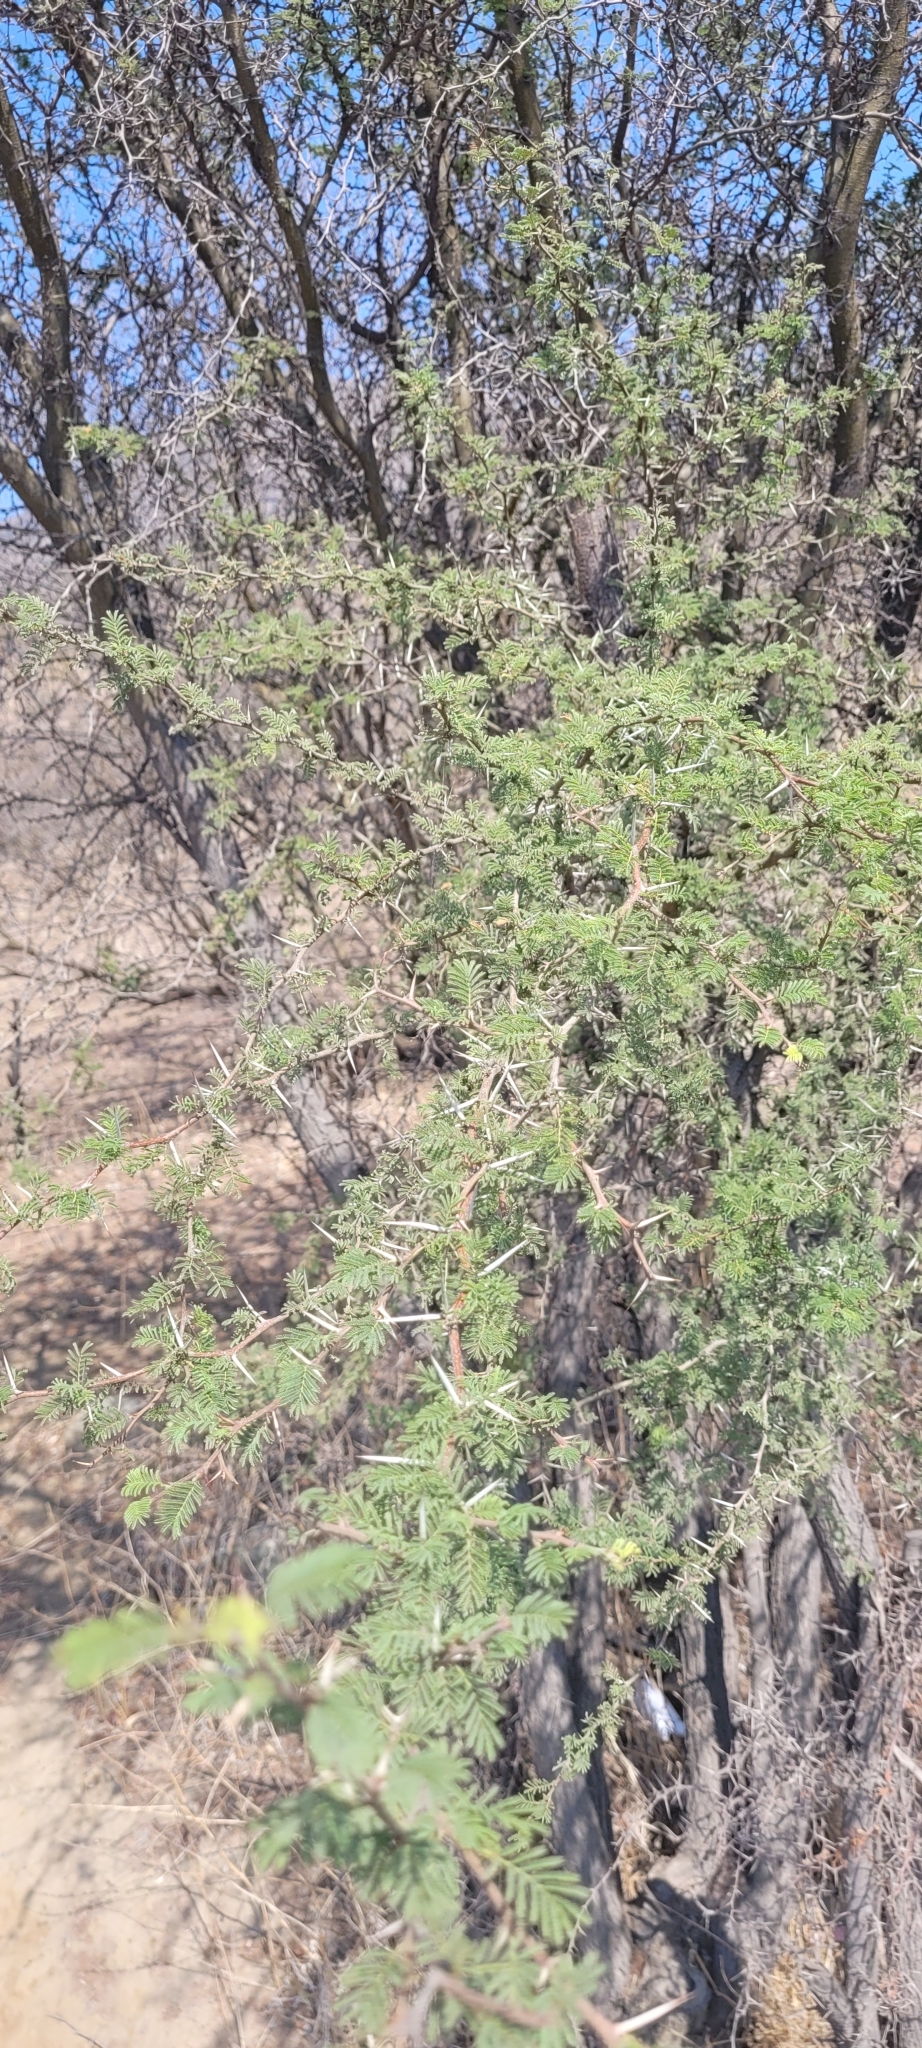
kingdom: Plantae
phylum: Tracheophyta
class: Magnoliopsida
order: Fabales
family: Fabaceae
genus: Vachellia
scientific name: Vachellia caven
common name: Roman cassie
